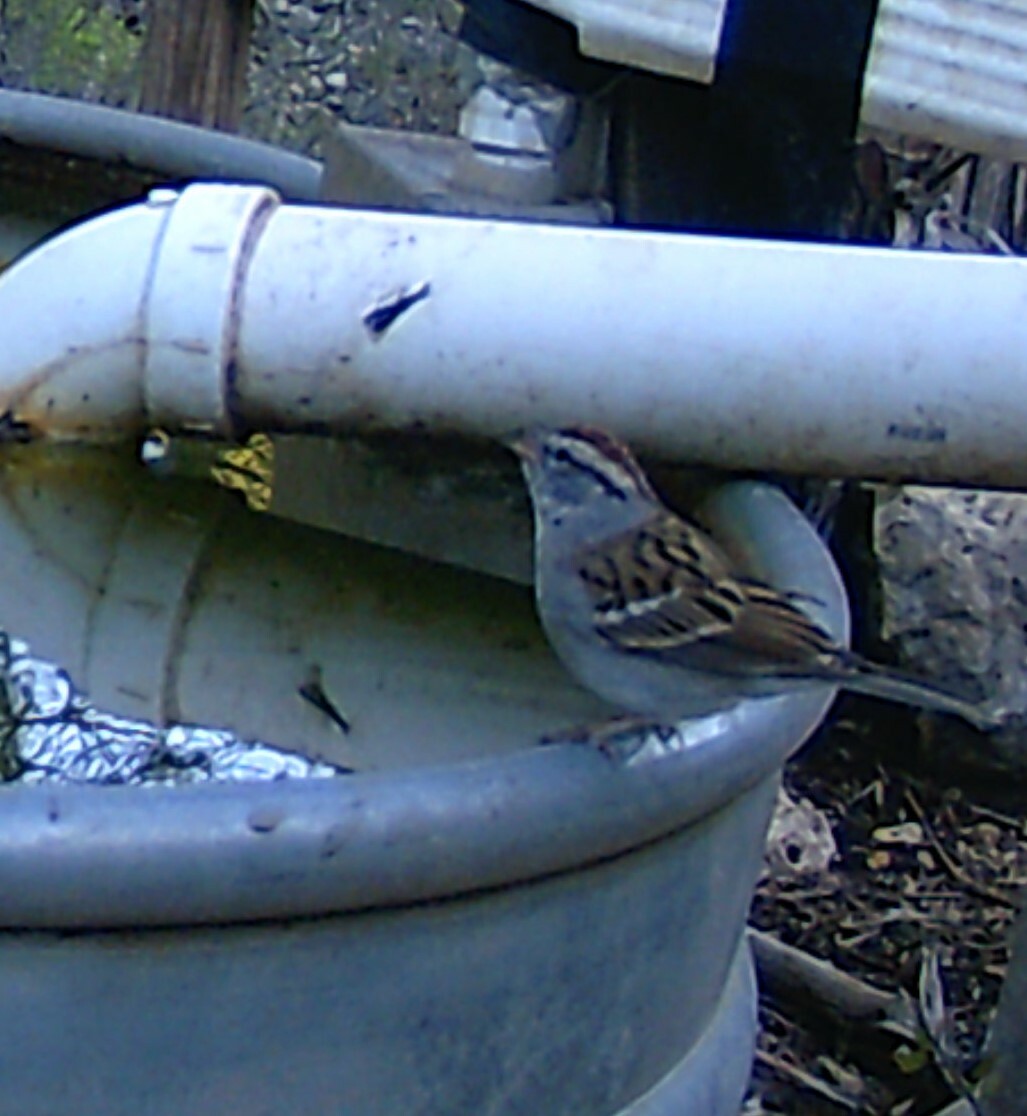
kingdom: Animalia
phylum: Chordata
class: Aves
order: Passeriformes
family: Passerellidae
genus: Spizella
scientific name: Spizella passerina
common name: Chipping sparrow
